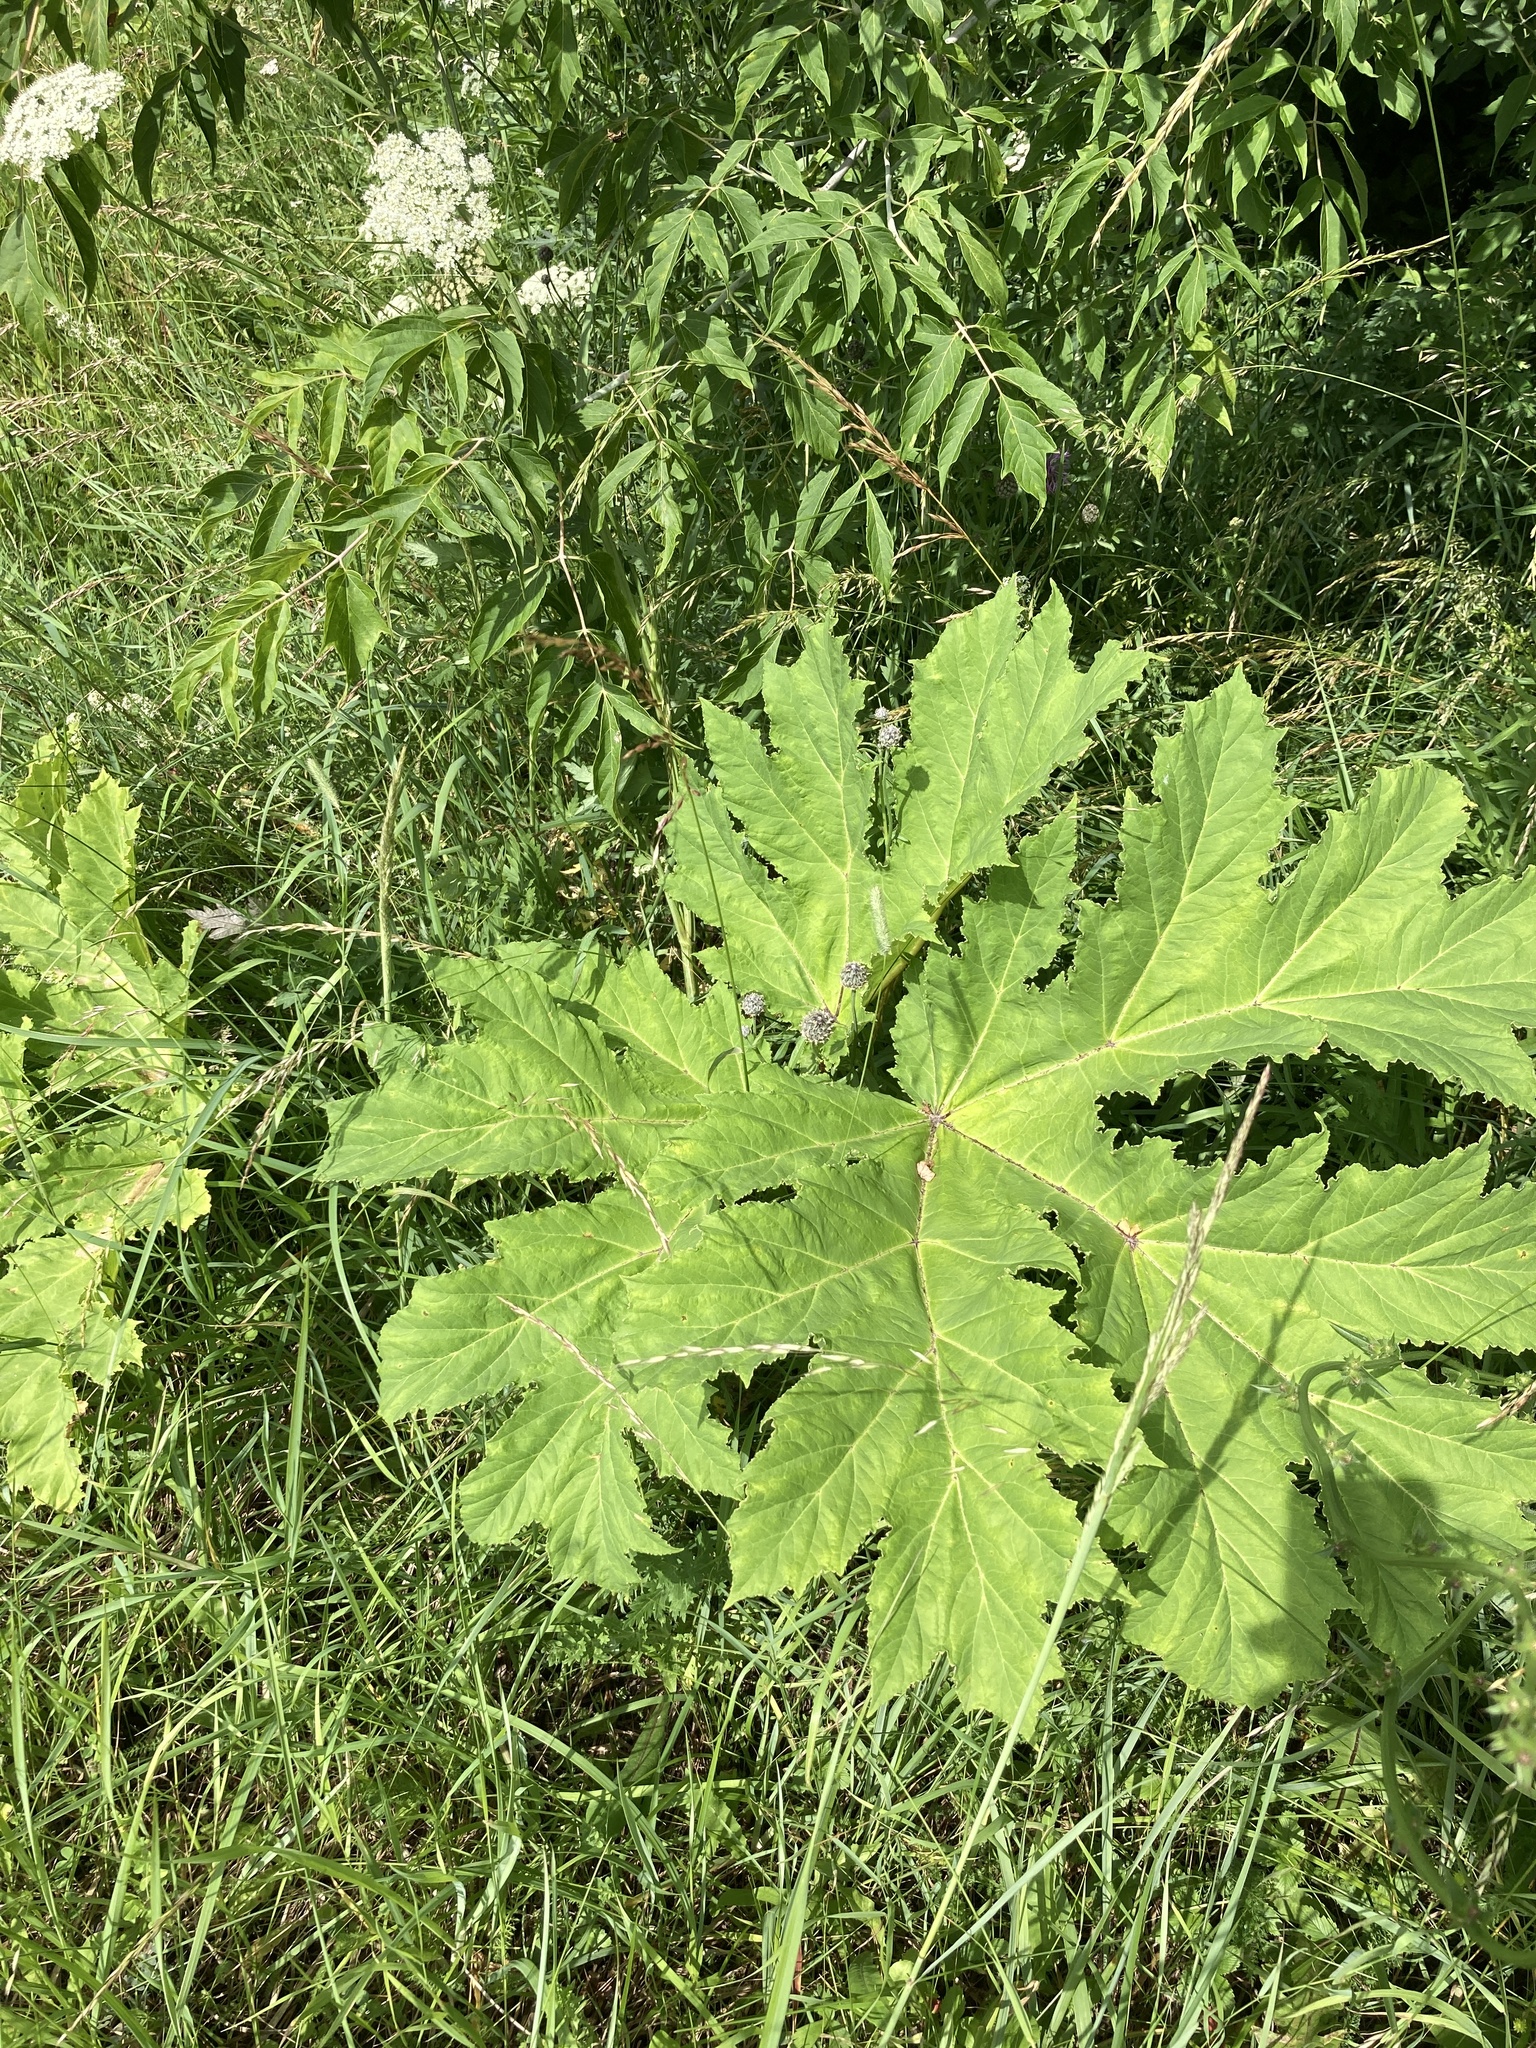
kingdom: Plantae
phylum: Tracheophyta
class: Magnoliopsida
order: Apiales
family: Apiaceae
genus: Heracleum
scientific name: Heracleum sosnowskyi
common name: Sosnowsky's hogweed
